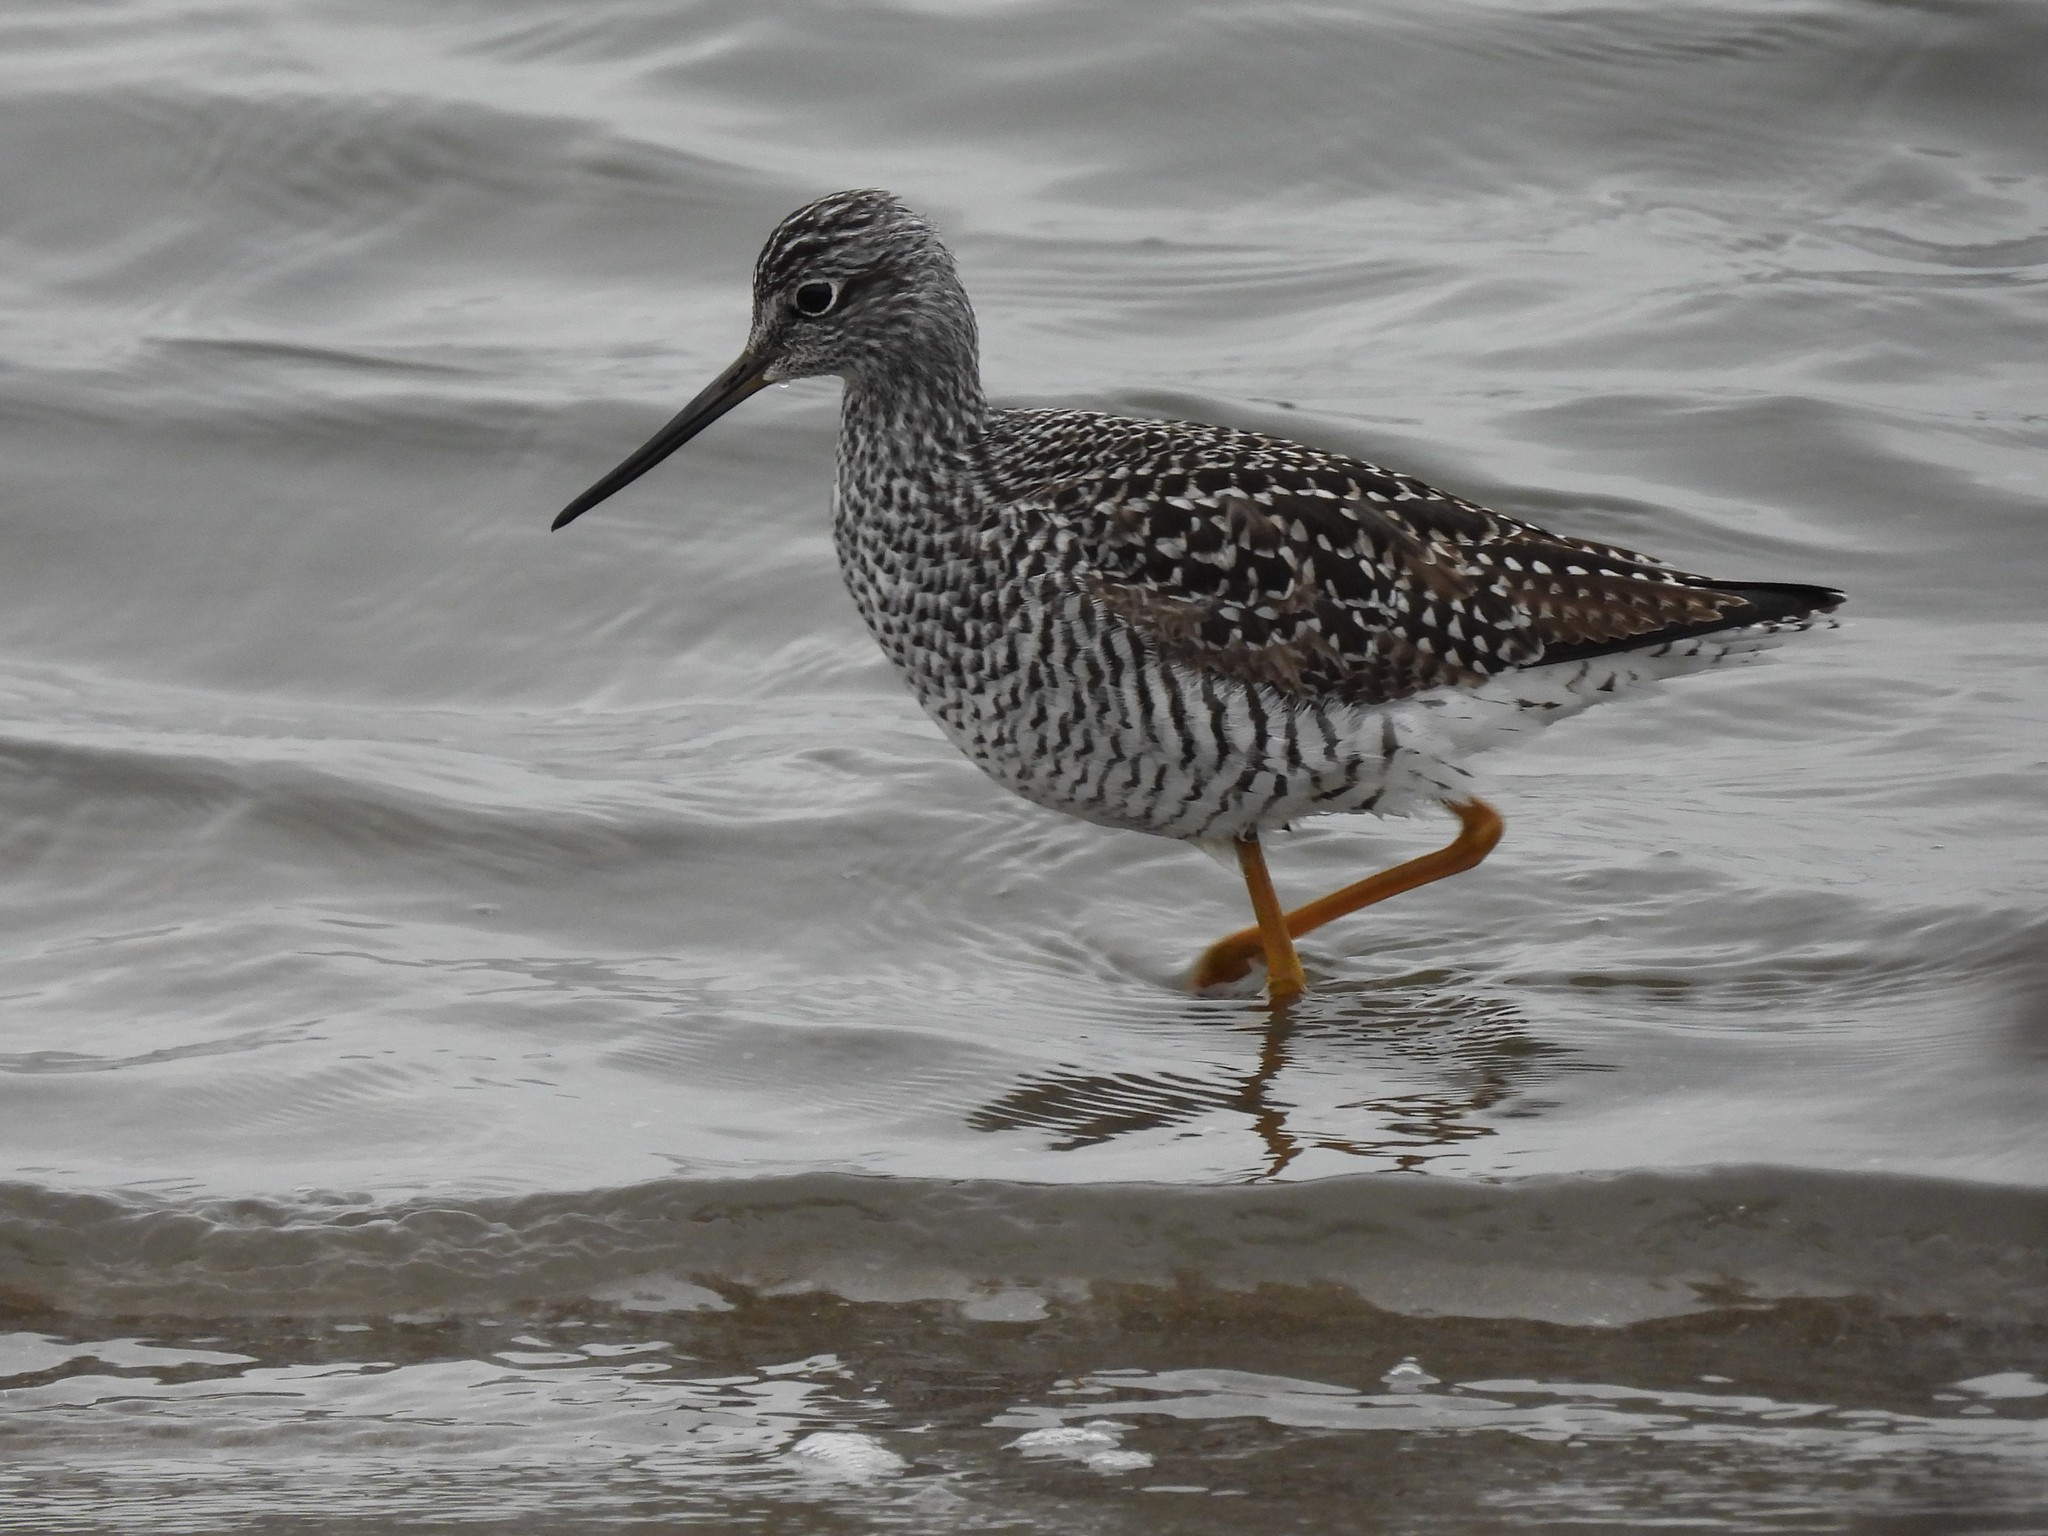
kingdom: Animalia
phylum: Chordata
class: Aves
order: Charadriiformes
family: Scolopacidae
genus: Tringa
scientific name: Tringa melanoleuca
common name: Greater yellowlegs
